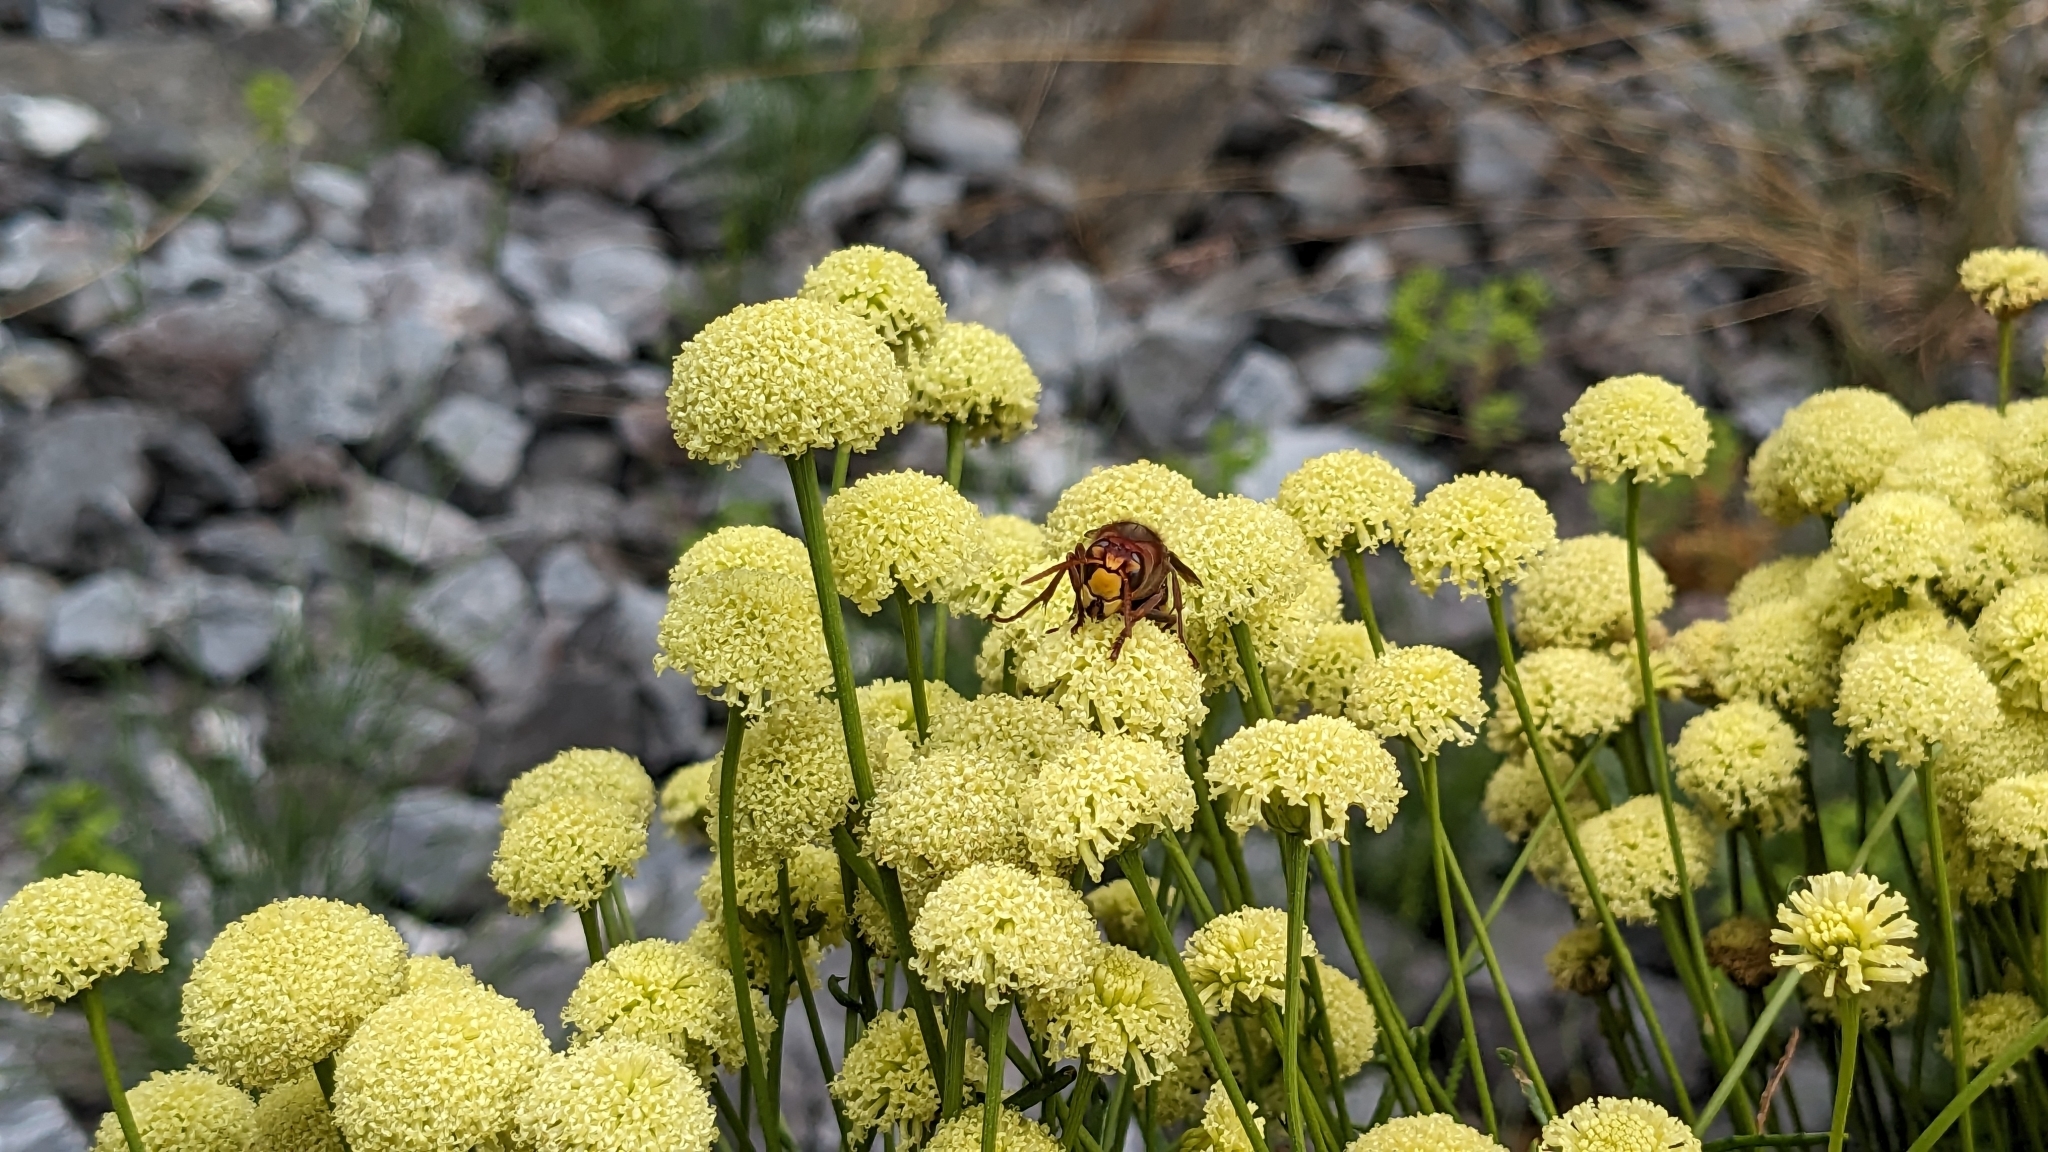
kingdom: Animalia
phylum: Arthropoda
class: Insecta
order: Hymenoptera
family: Vespidae
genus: Vespa
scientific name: Vespa crabro
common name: Hornet
